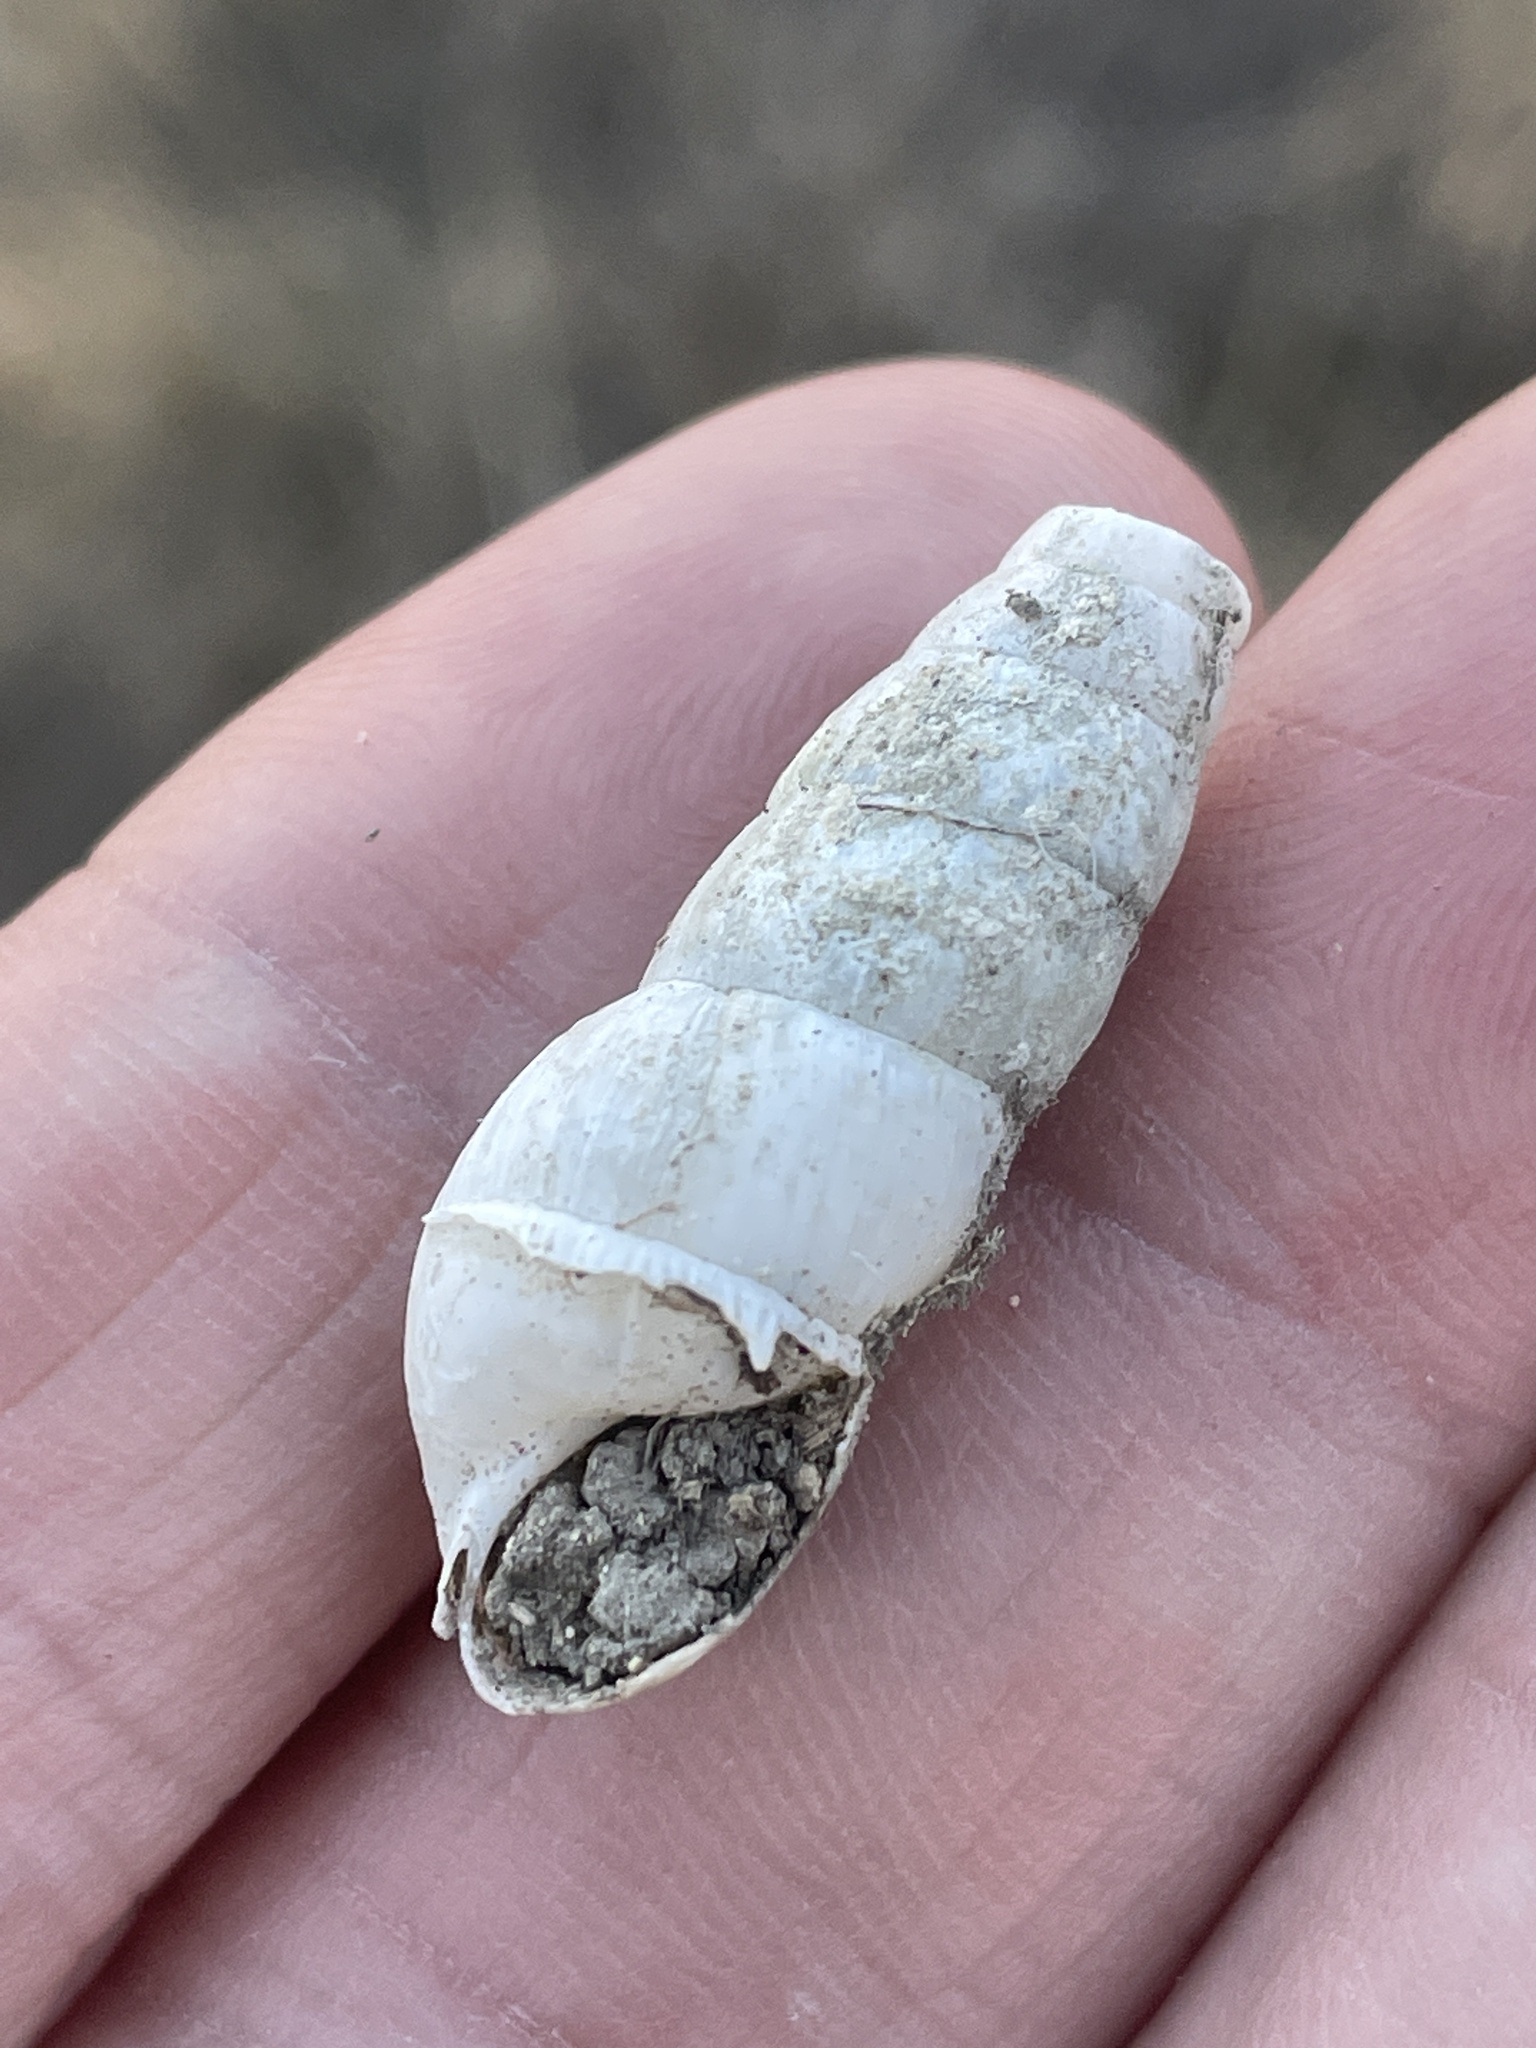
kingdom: Animalia
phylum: Mollusca
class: Gastropoda
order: Stylommatophora
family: Achatinidae
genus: Rumina
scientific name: Rumina decollata
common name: Decollate snail
